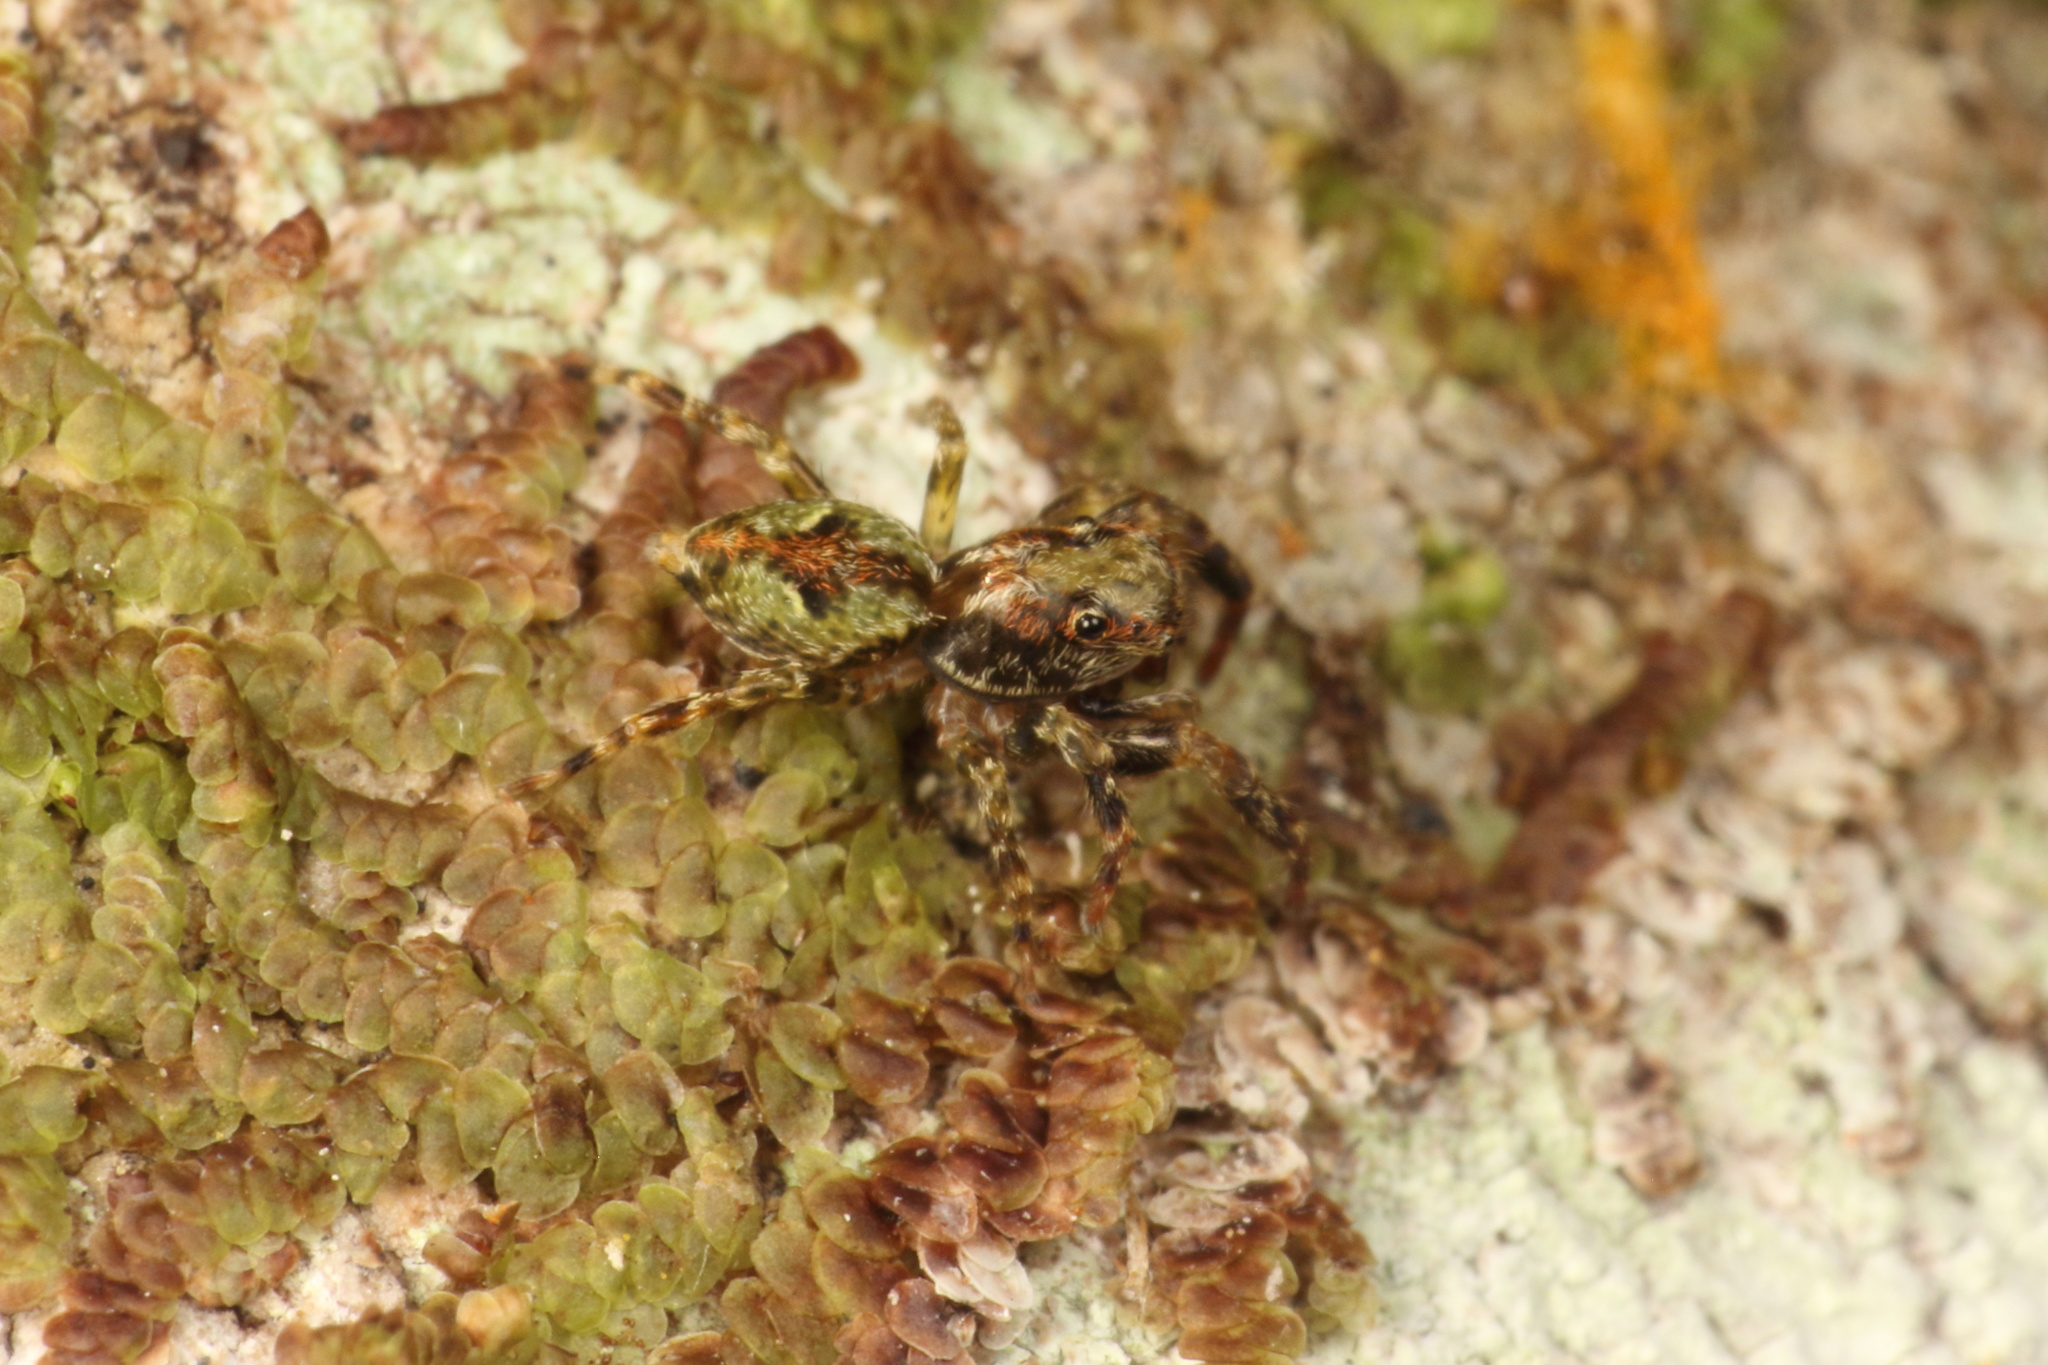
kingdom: Animalia
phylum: Arthropoda
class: Arachnida
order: Araneae
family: Salticidae
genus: Hinewaia
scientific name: Hinewaia embolica
